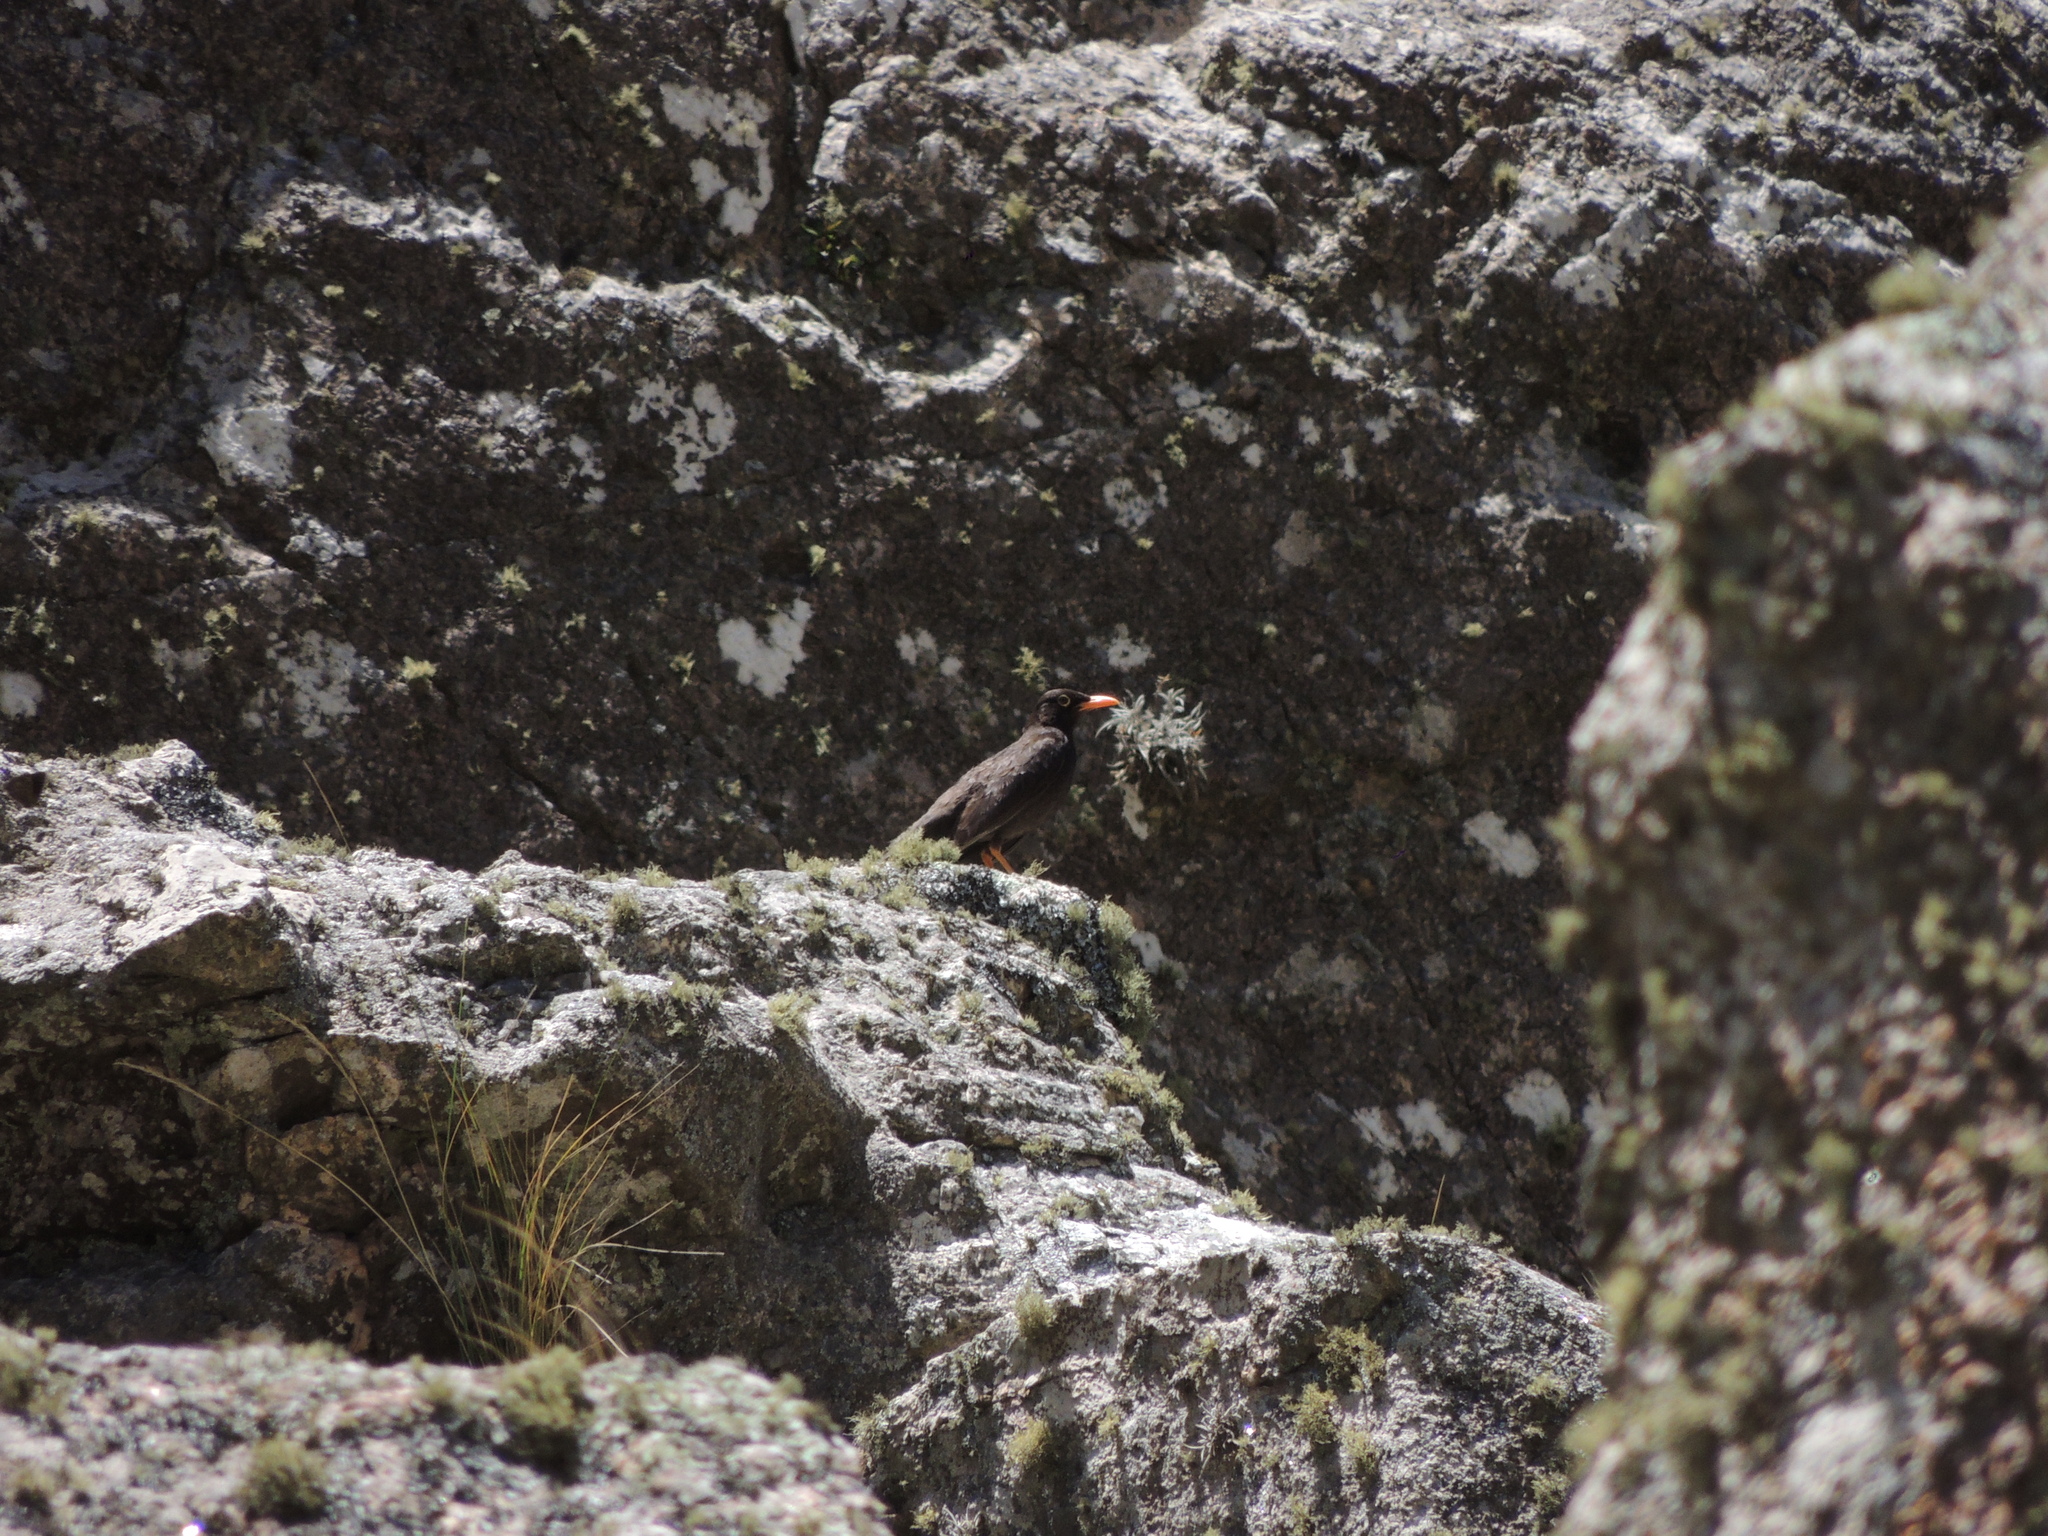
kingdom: Animalia
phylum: Chordata
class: Aves
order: Passeriformes
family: Turdidae
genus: Turdus
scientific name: Turdus chiguanco
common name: Chiguanco thrush
